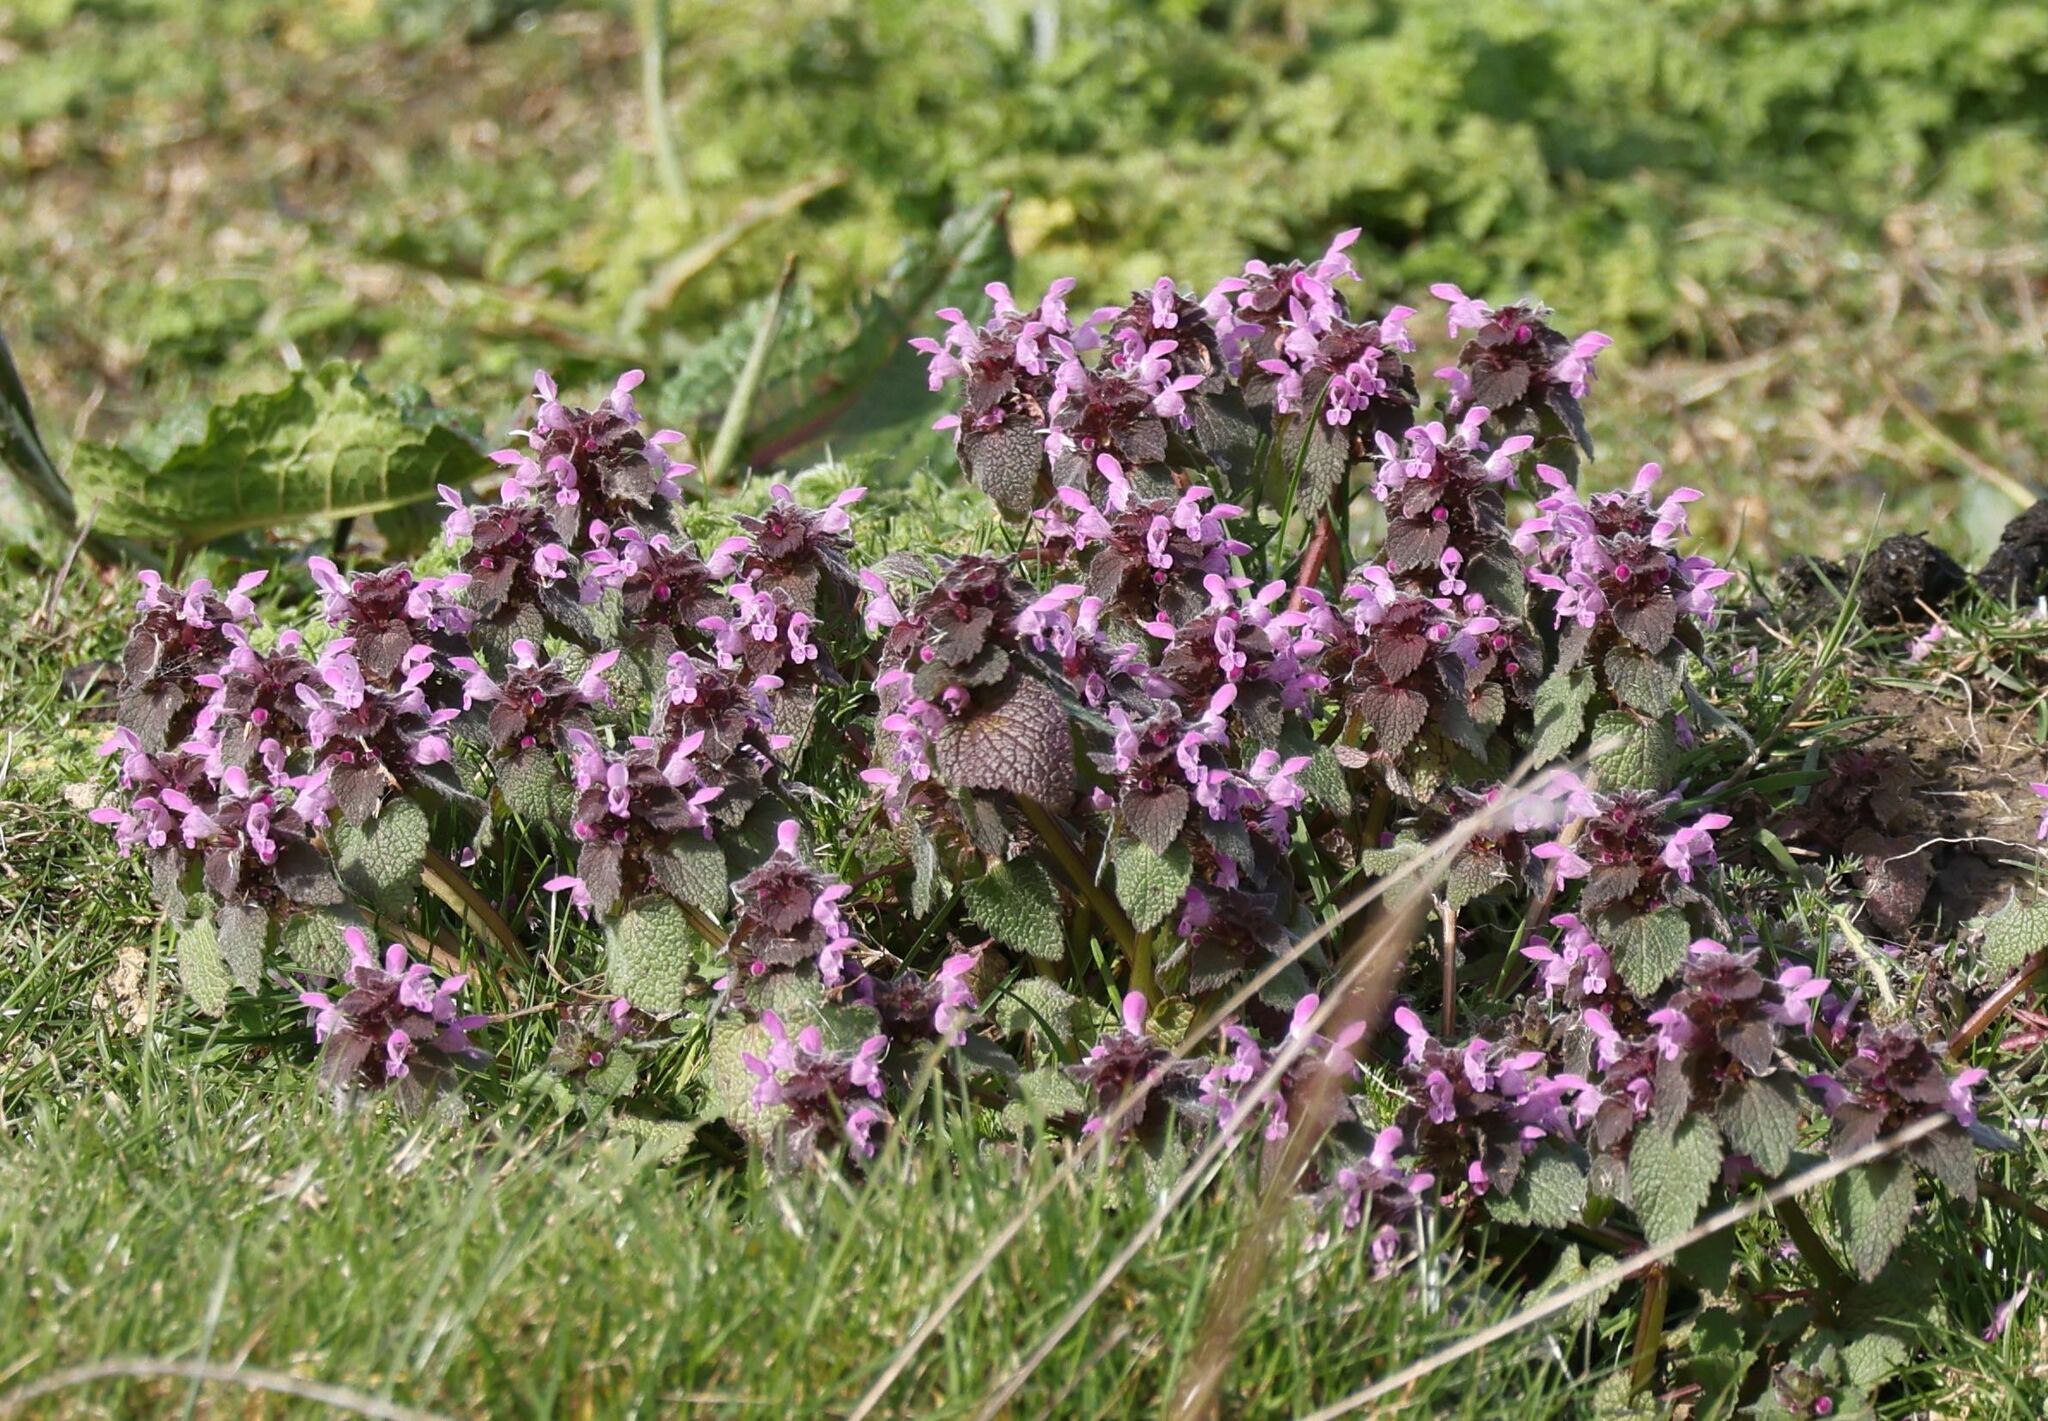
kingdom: Plantae
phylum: Tracheophyta
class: Magnoliopsida
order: Lamiales
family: Lamiaceae
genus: Lamium
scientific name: Lamium purpureum
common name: Red dead-nettle
